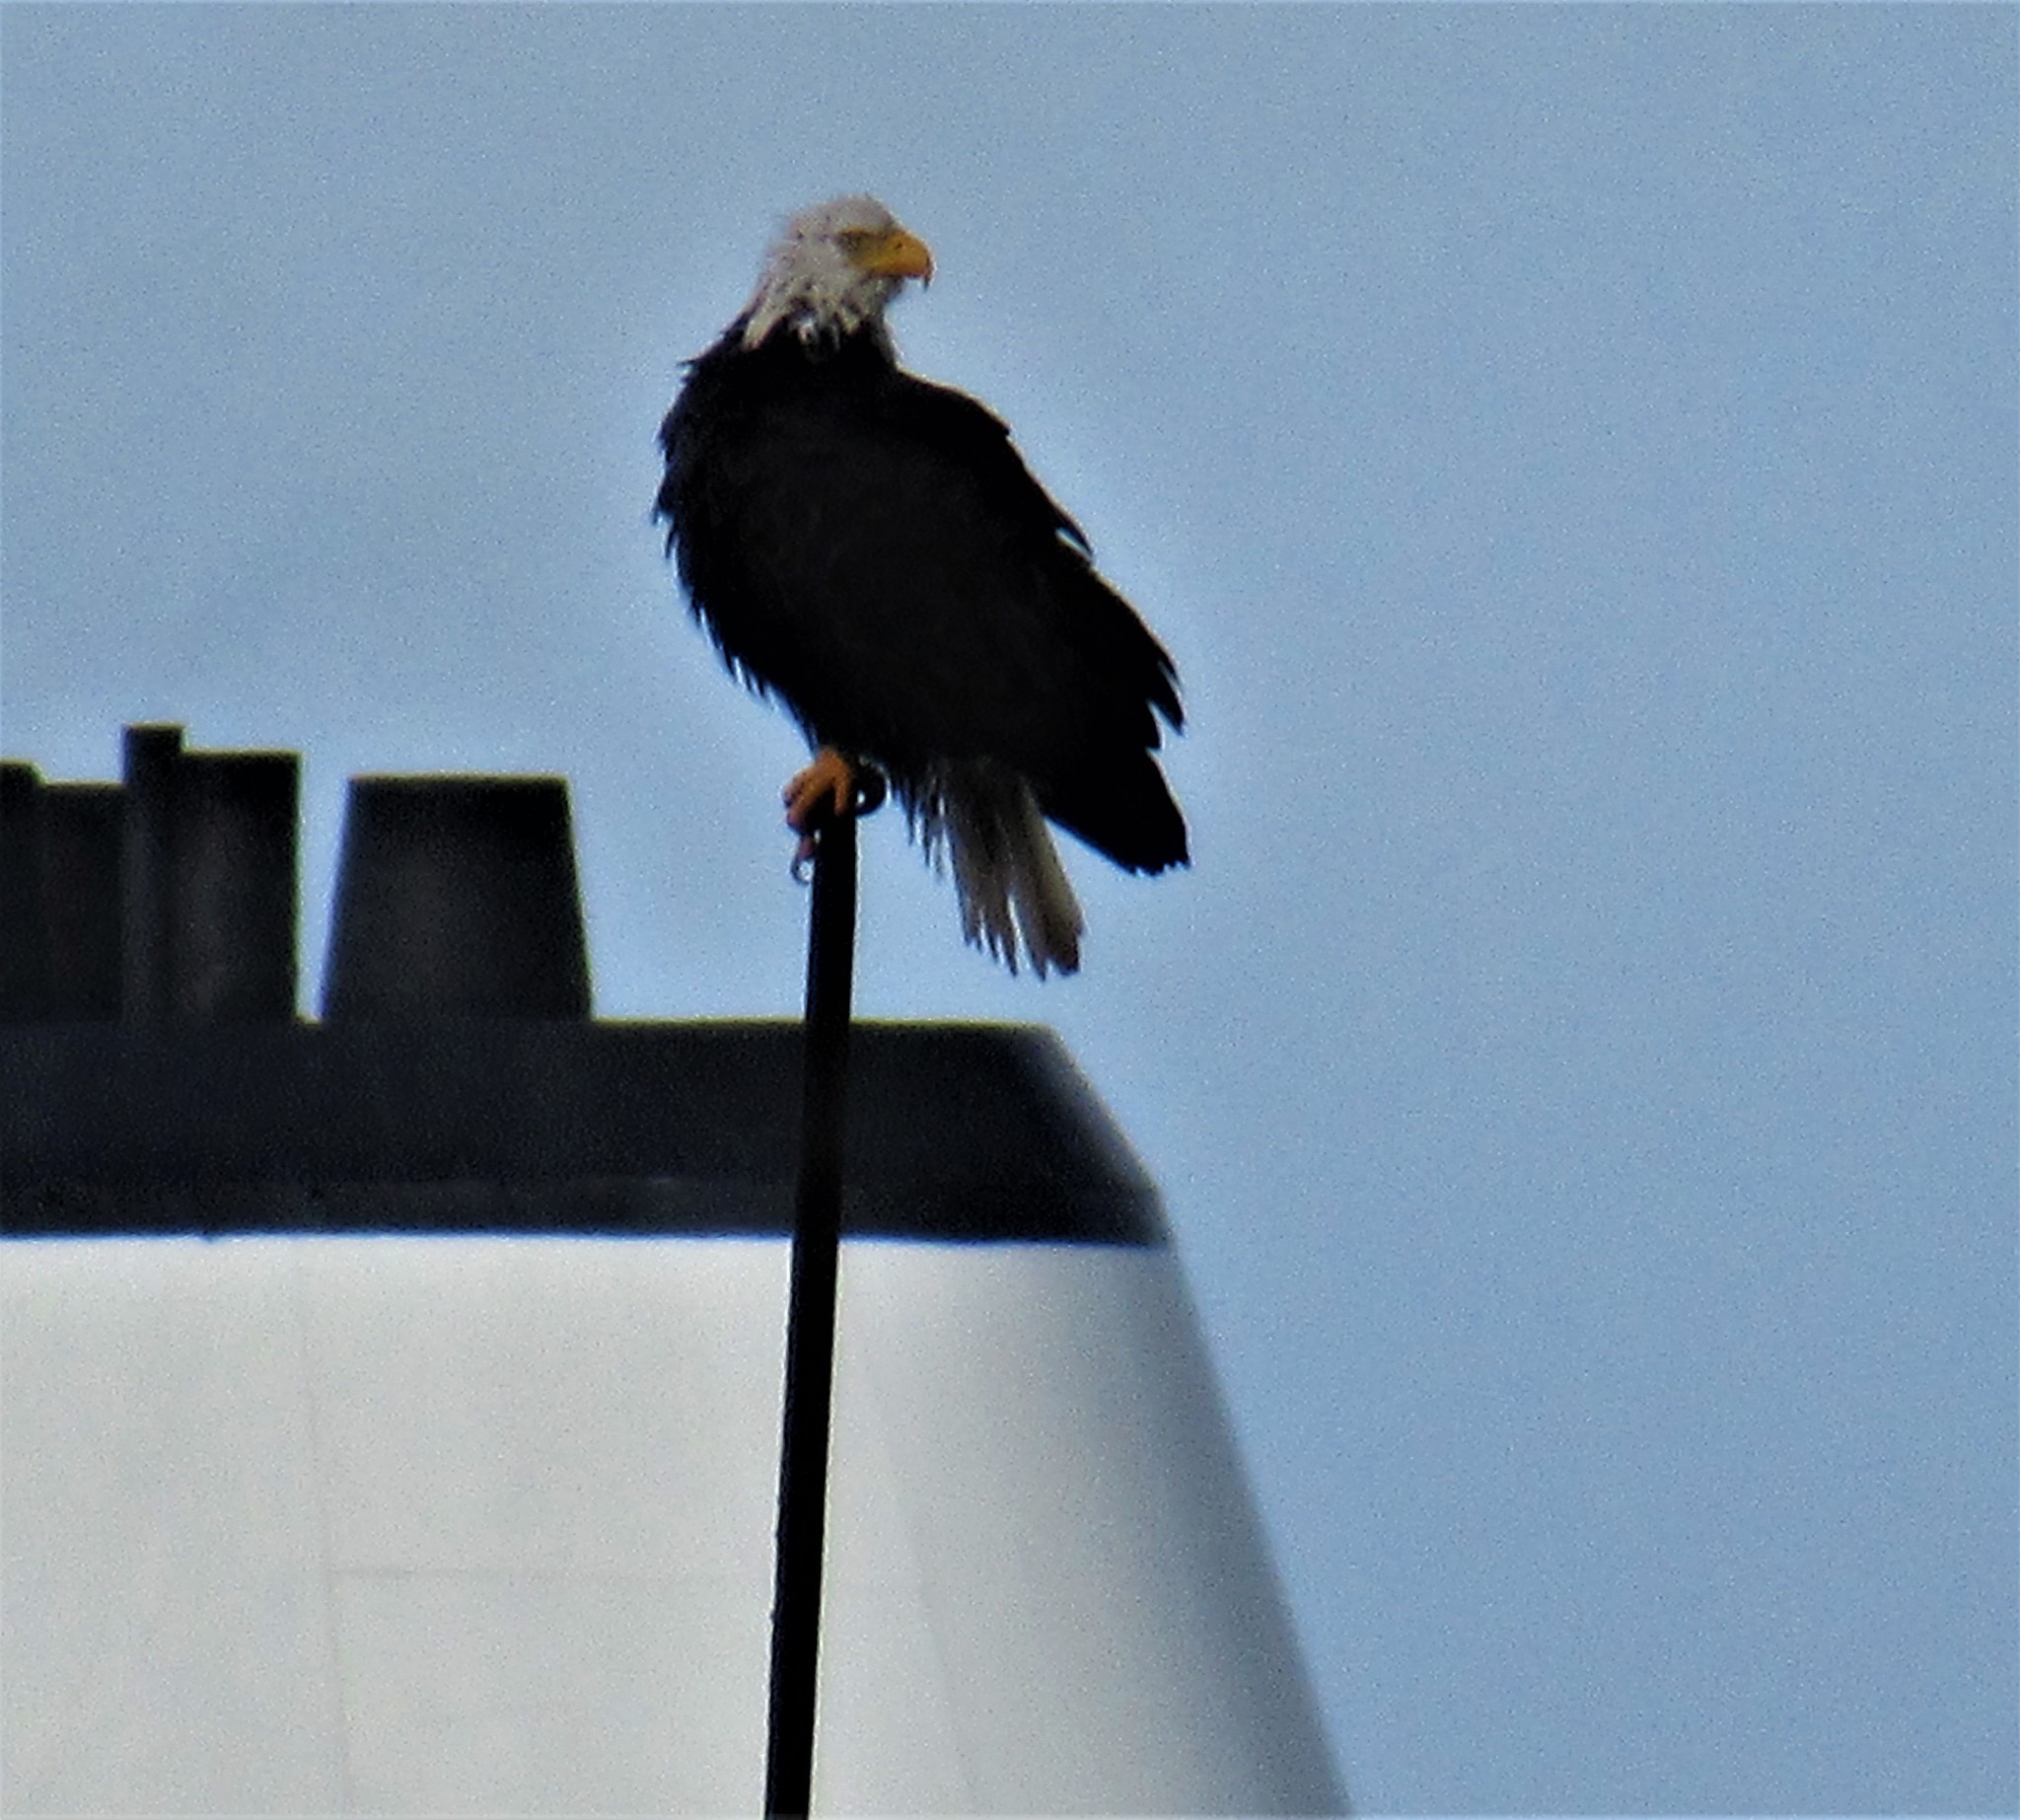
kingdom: Animalia
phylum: Chordata
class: Aves
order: Accipitriformes
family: Accipitridae
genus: Haliaeetus
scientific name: Haliaeetus leucocephalus
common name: Bald eagle
